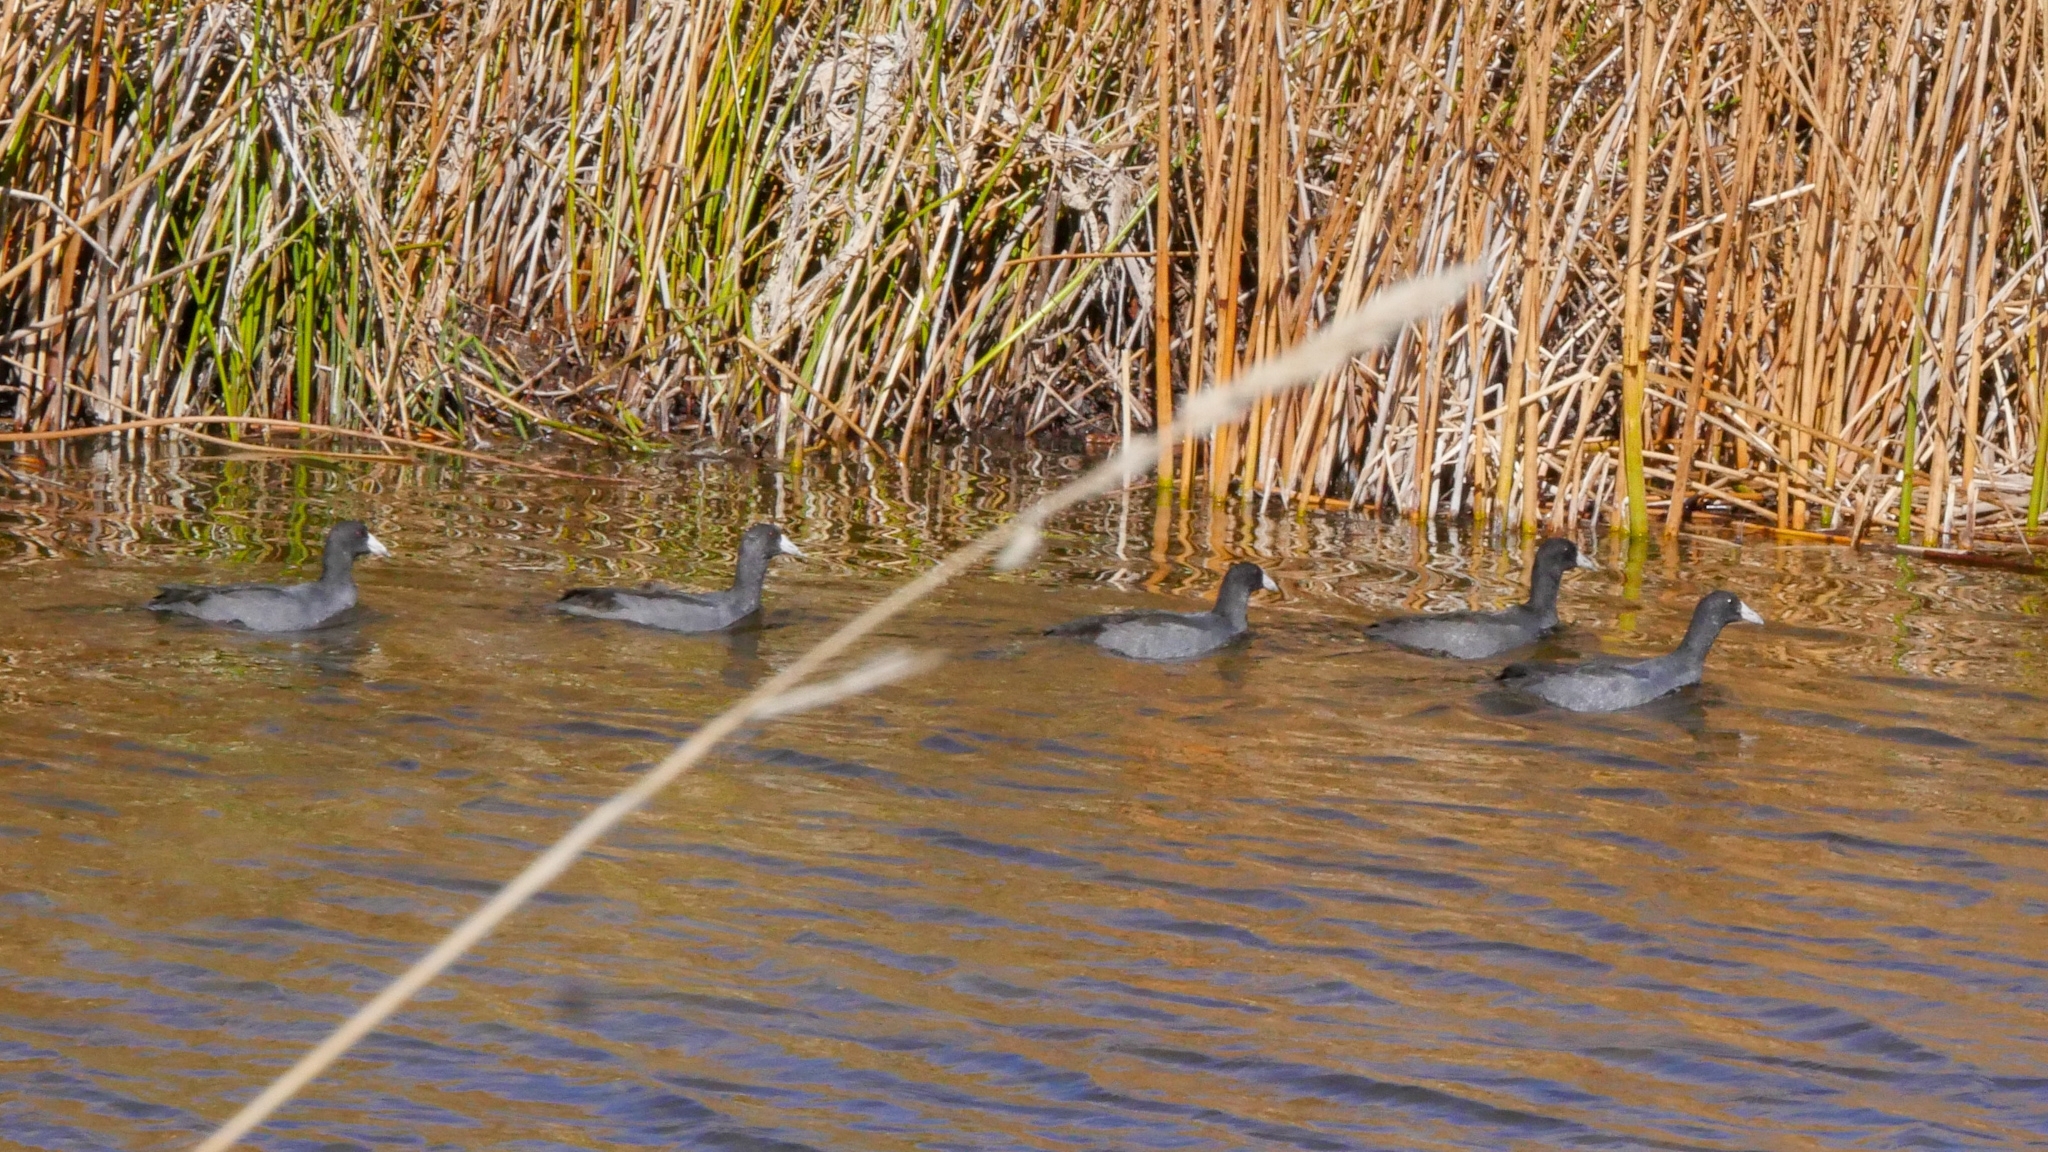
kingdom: Animalia
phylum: Chordata
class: Aves
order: Gruiformes
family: Rallidae
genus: Fulica
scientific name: Fulica americana
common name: American coot
